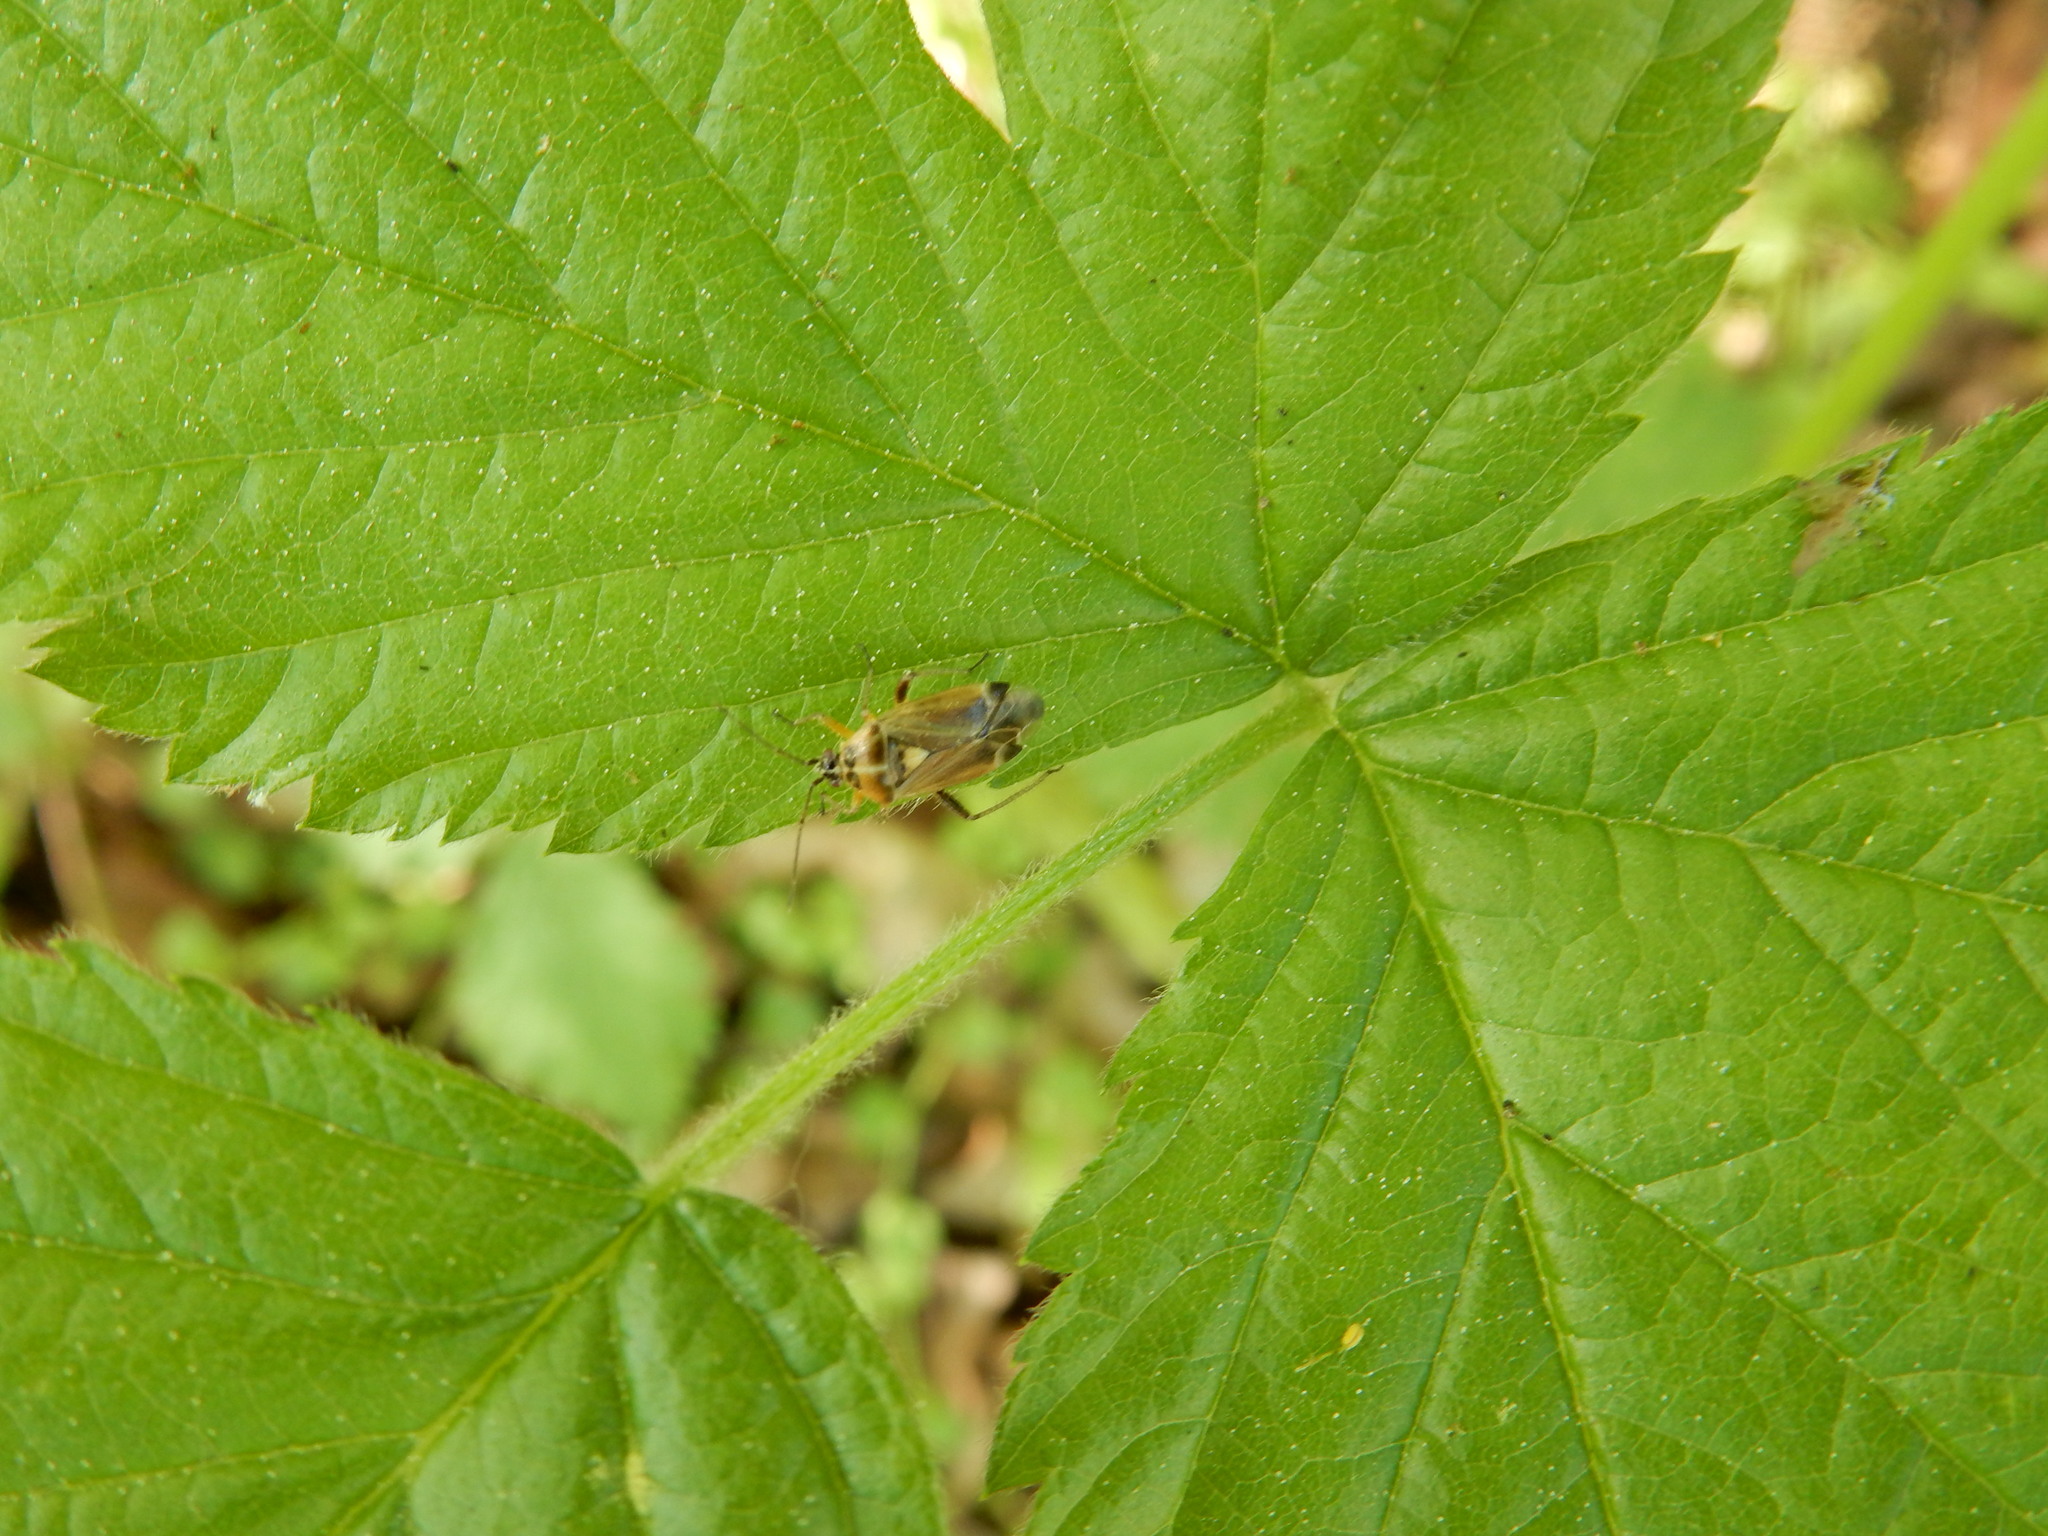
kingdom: Animalia
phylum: Arthropoda
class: Insecta
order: Hemiptera
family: Miridae
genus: Harpocera
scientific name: Harpocera thoracica
